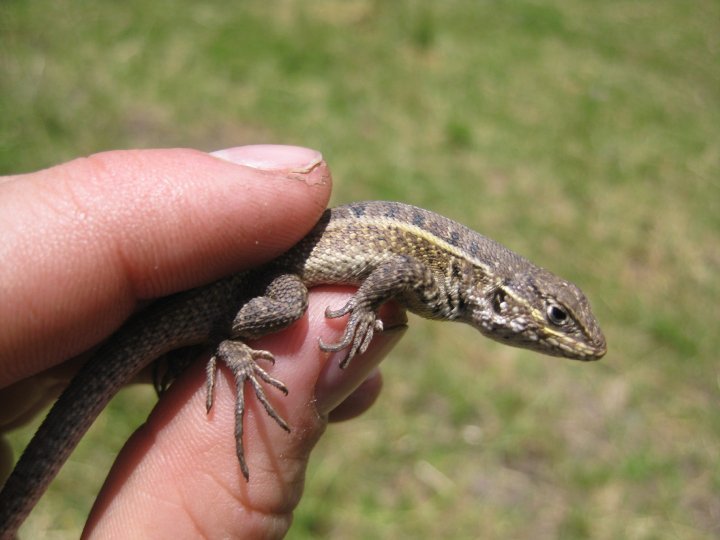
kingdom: Animalia
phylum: Chordata
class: Squamata
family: Tropiduridae
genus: Stenocercus
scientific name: Stenocercus ornatissimus
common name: Lesser ornate whorltail iguana
